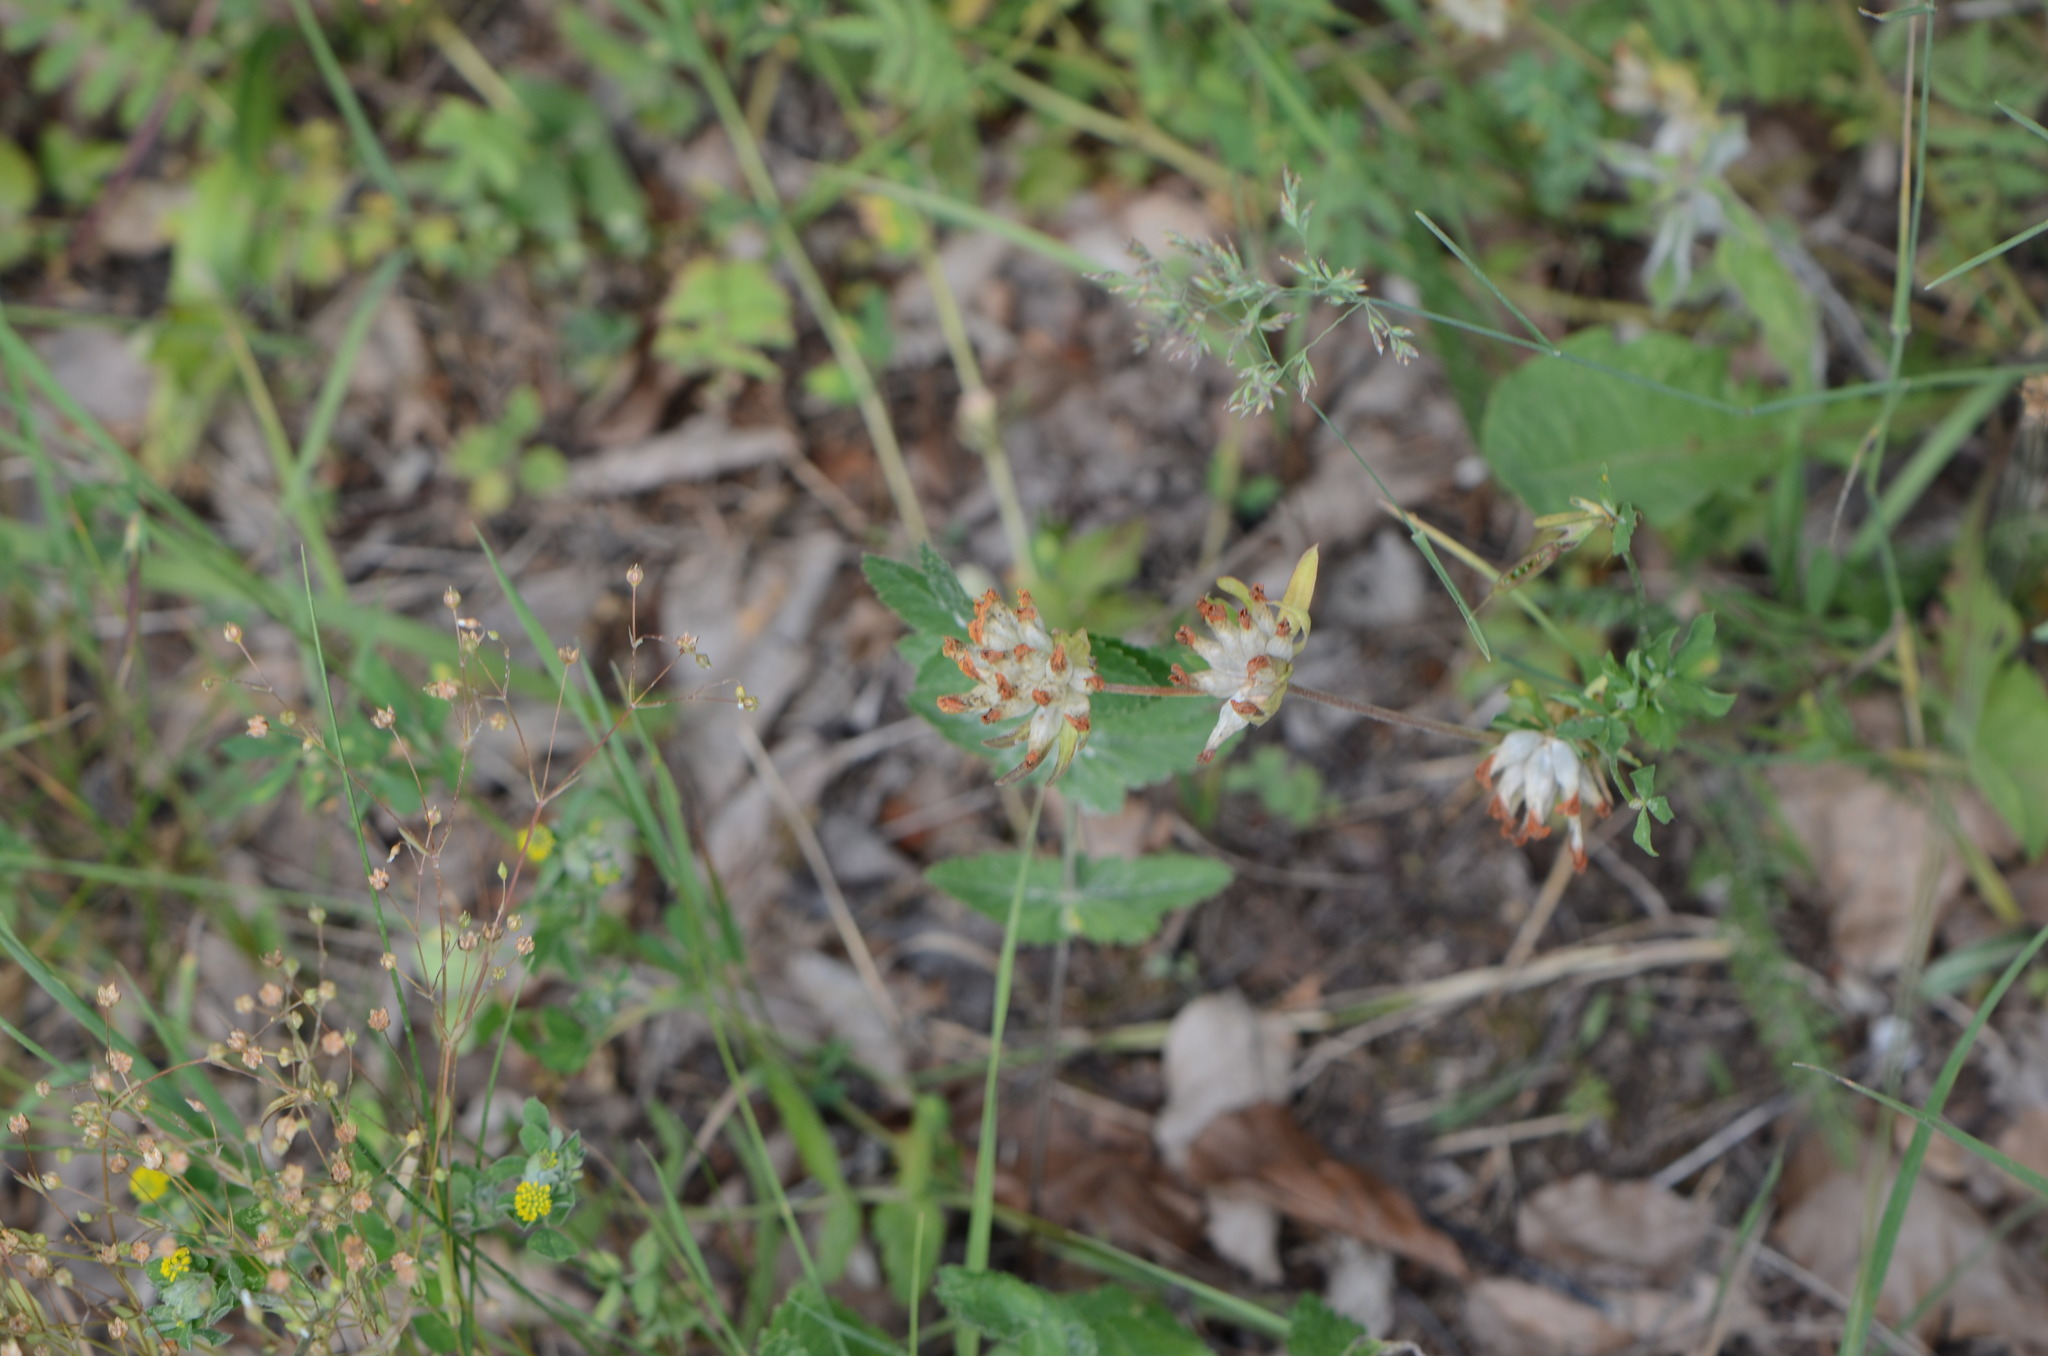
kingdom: Plantae
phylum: Tracheophyta
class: Magnoliopsida
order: Fabales
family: Fabaceae
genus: Anthyllis
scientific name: Anthyllis vulneraria
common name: Kidney vetch
